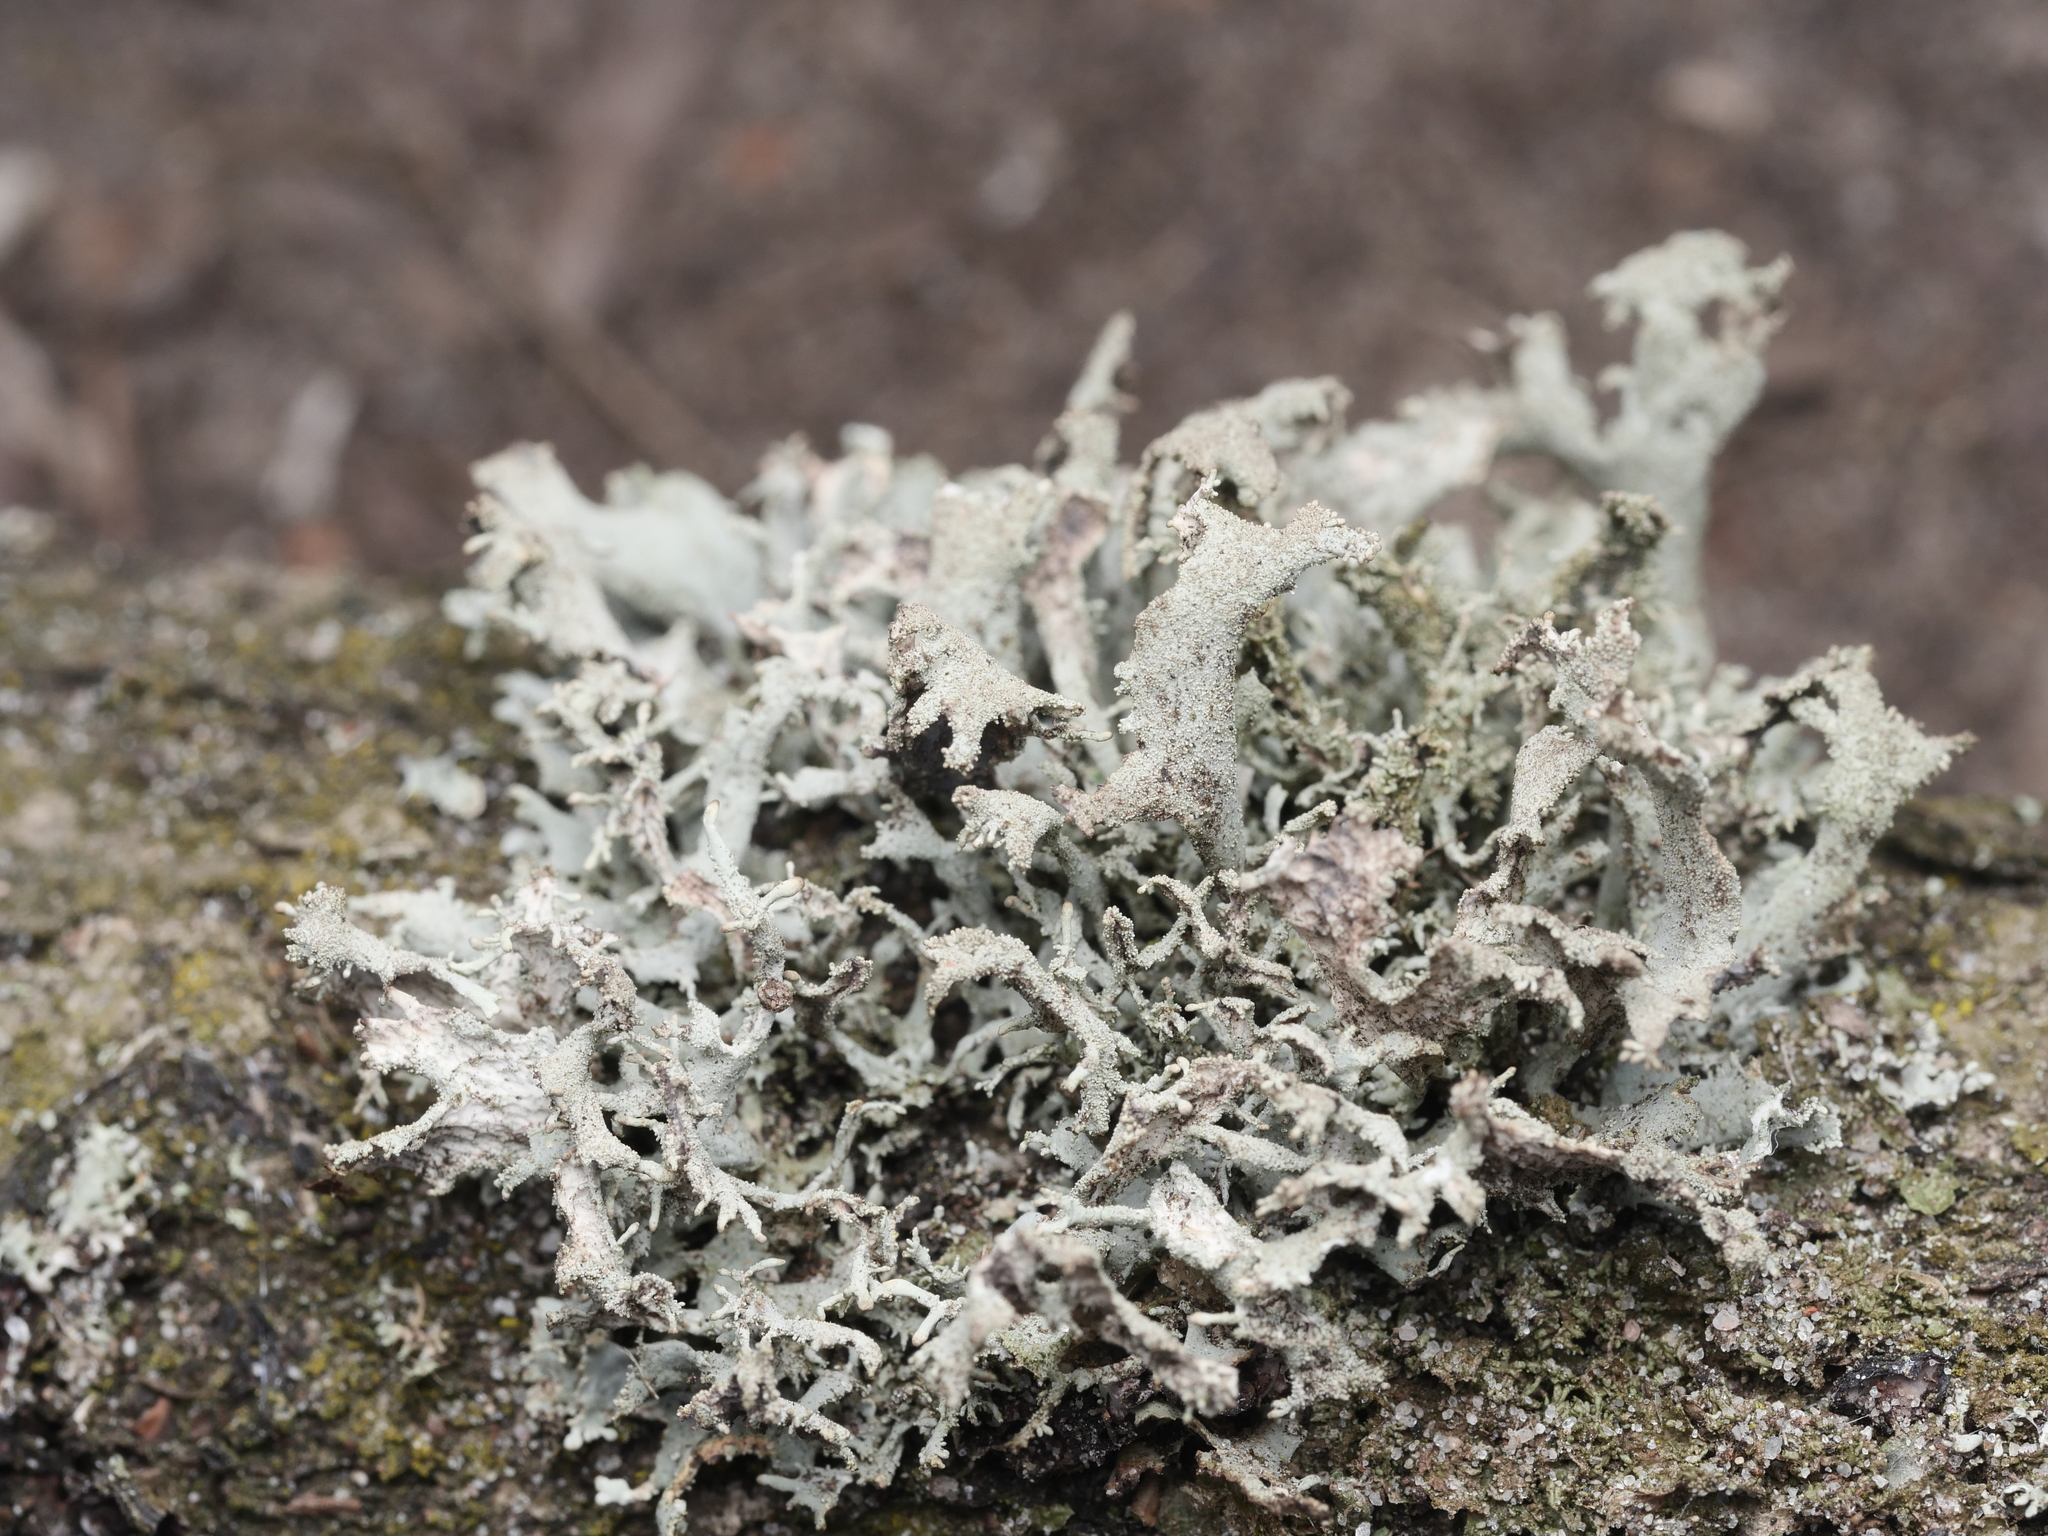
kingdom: Fungi
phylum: Ascomycota
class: Lecanoromycetes
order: Lecanorales
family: Parmeliaceae
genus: Pseudevernia
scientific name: Pseudevernia furfuracea
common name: Tree moss
